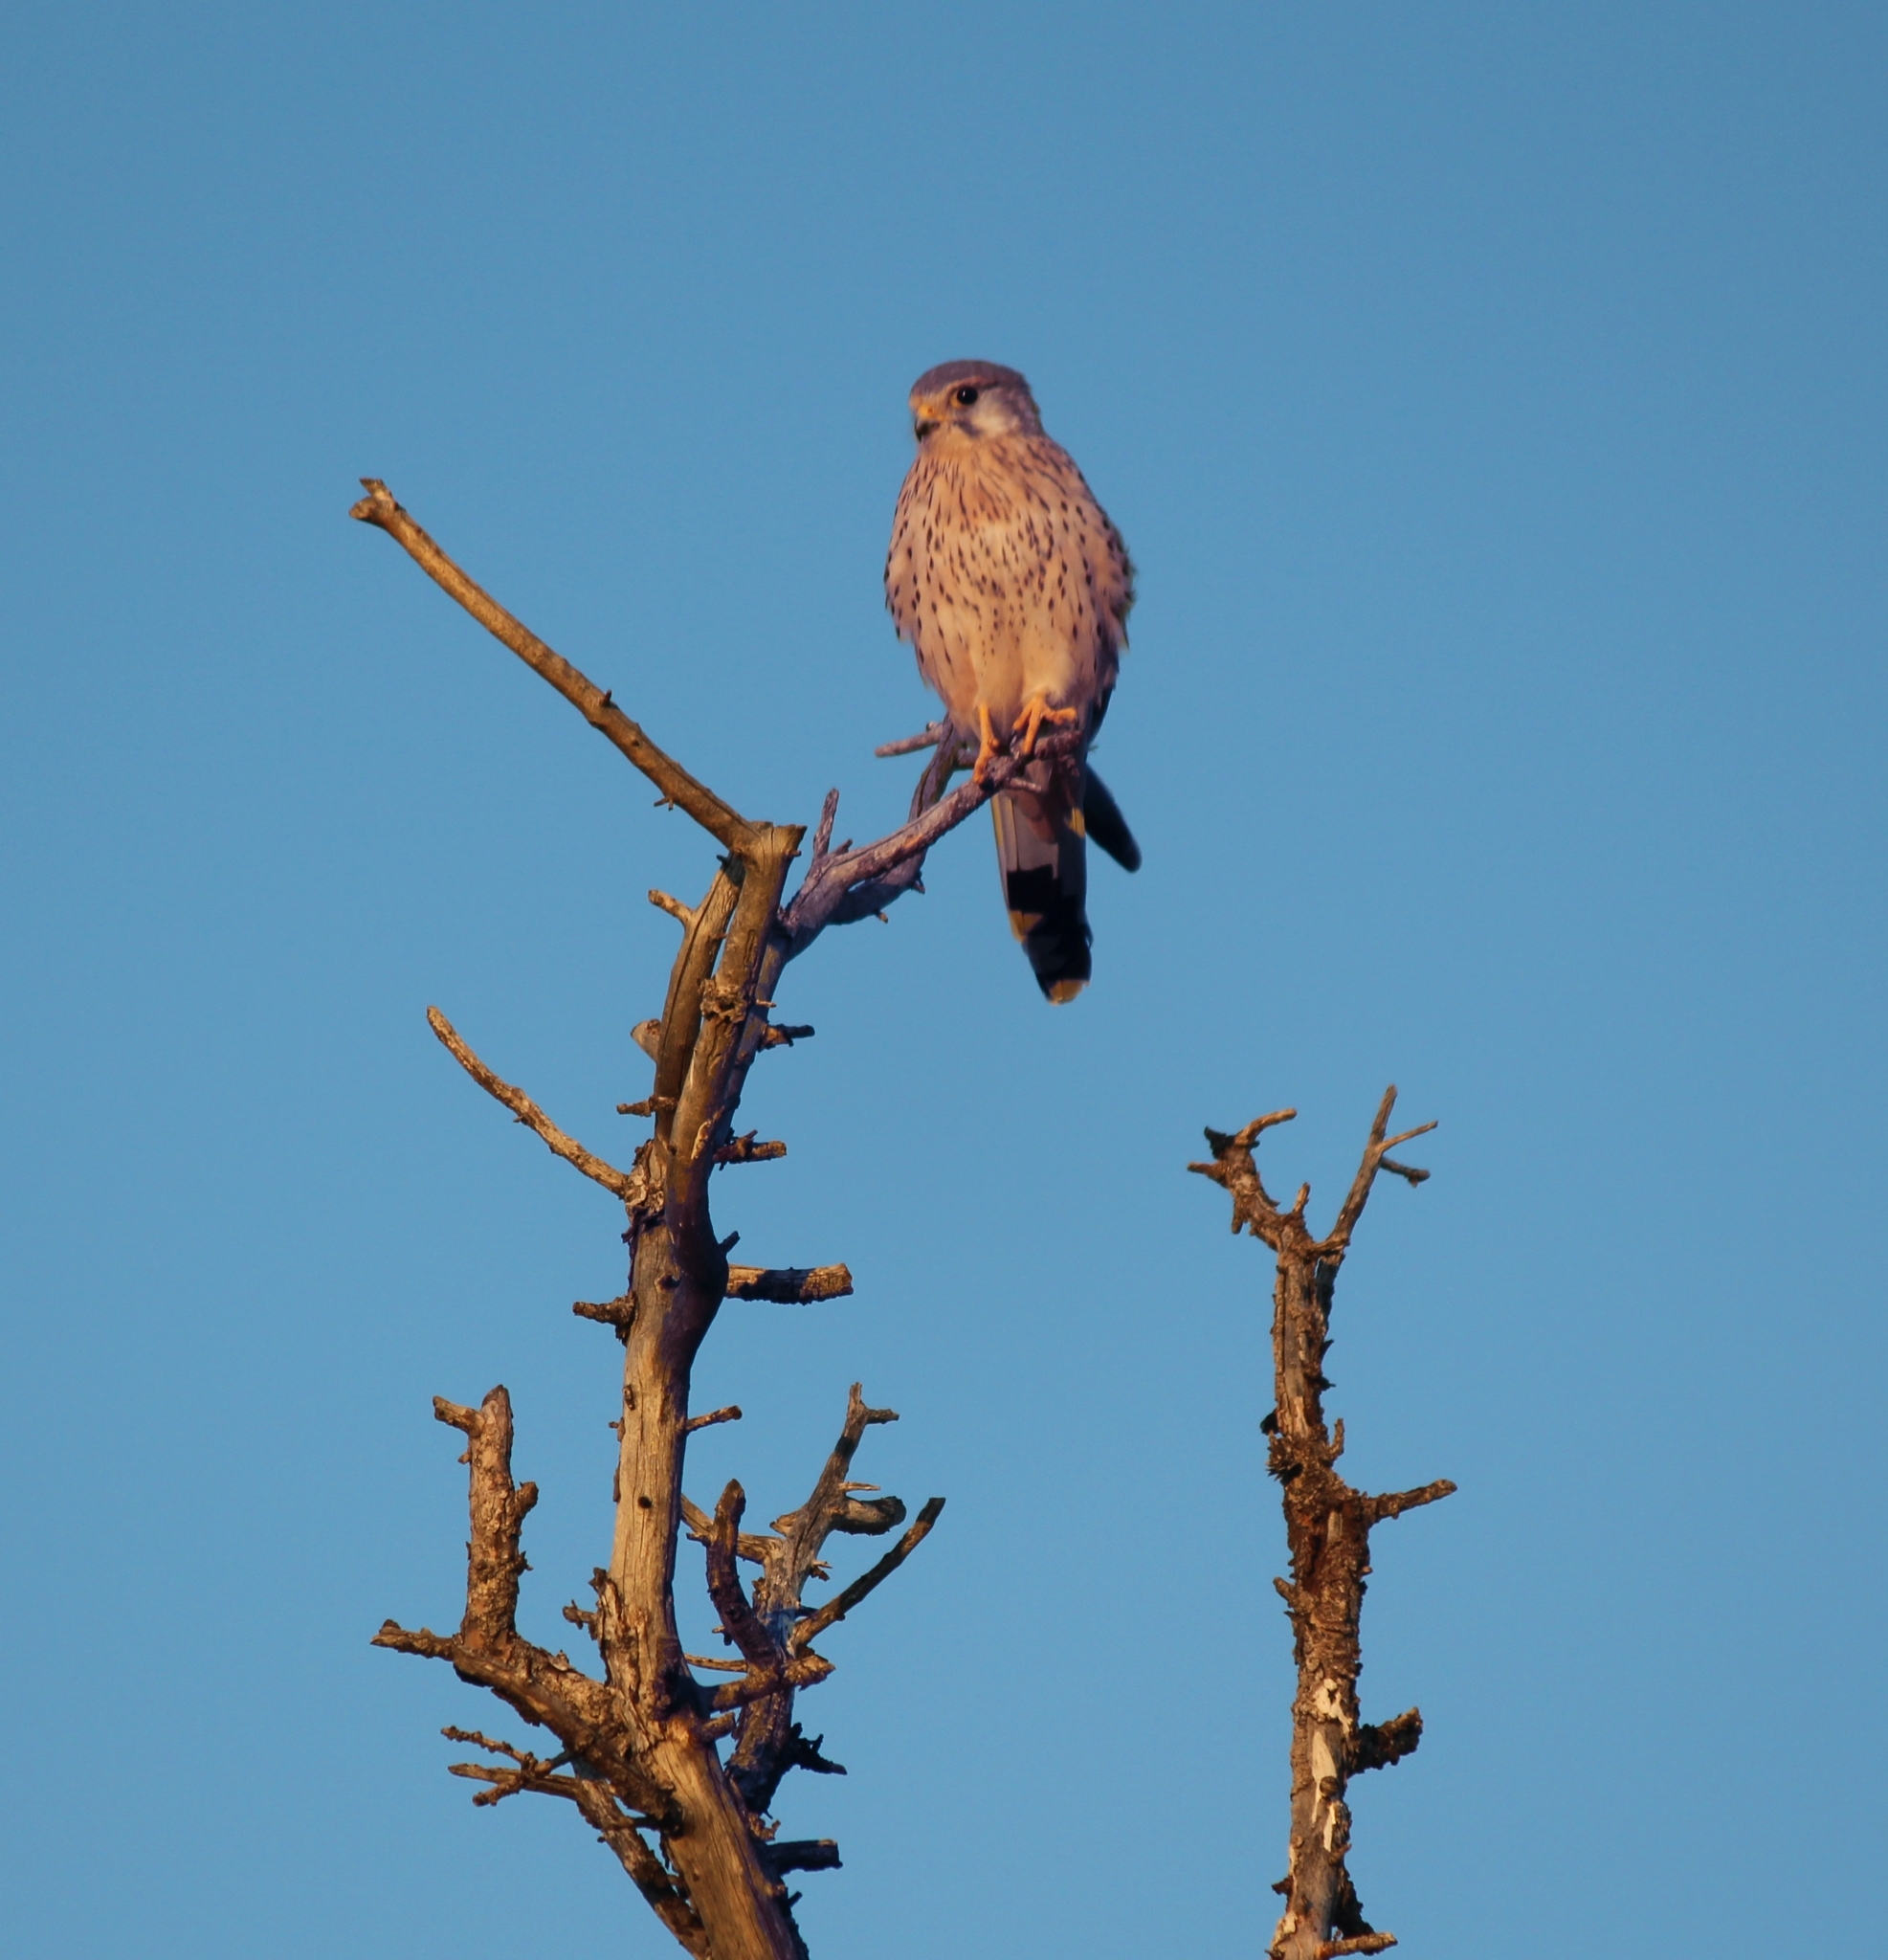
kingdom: Animalia
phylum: Chordata
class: Aves
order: Falconiformes
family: Falconidae
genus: Falco
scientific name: Falco tinnunculus
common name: Common kestrel
